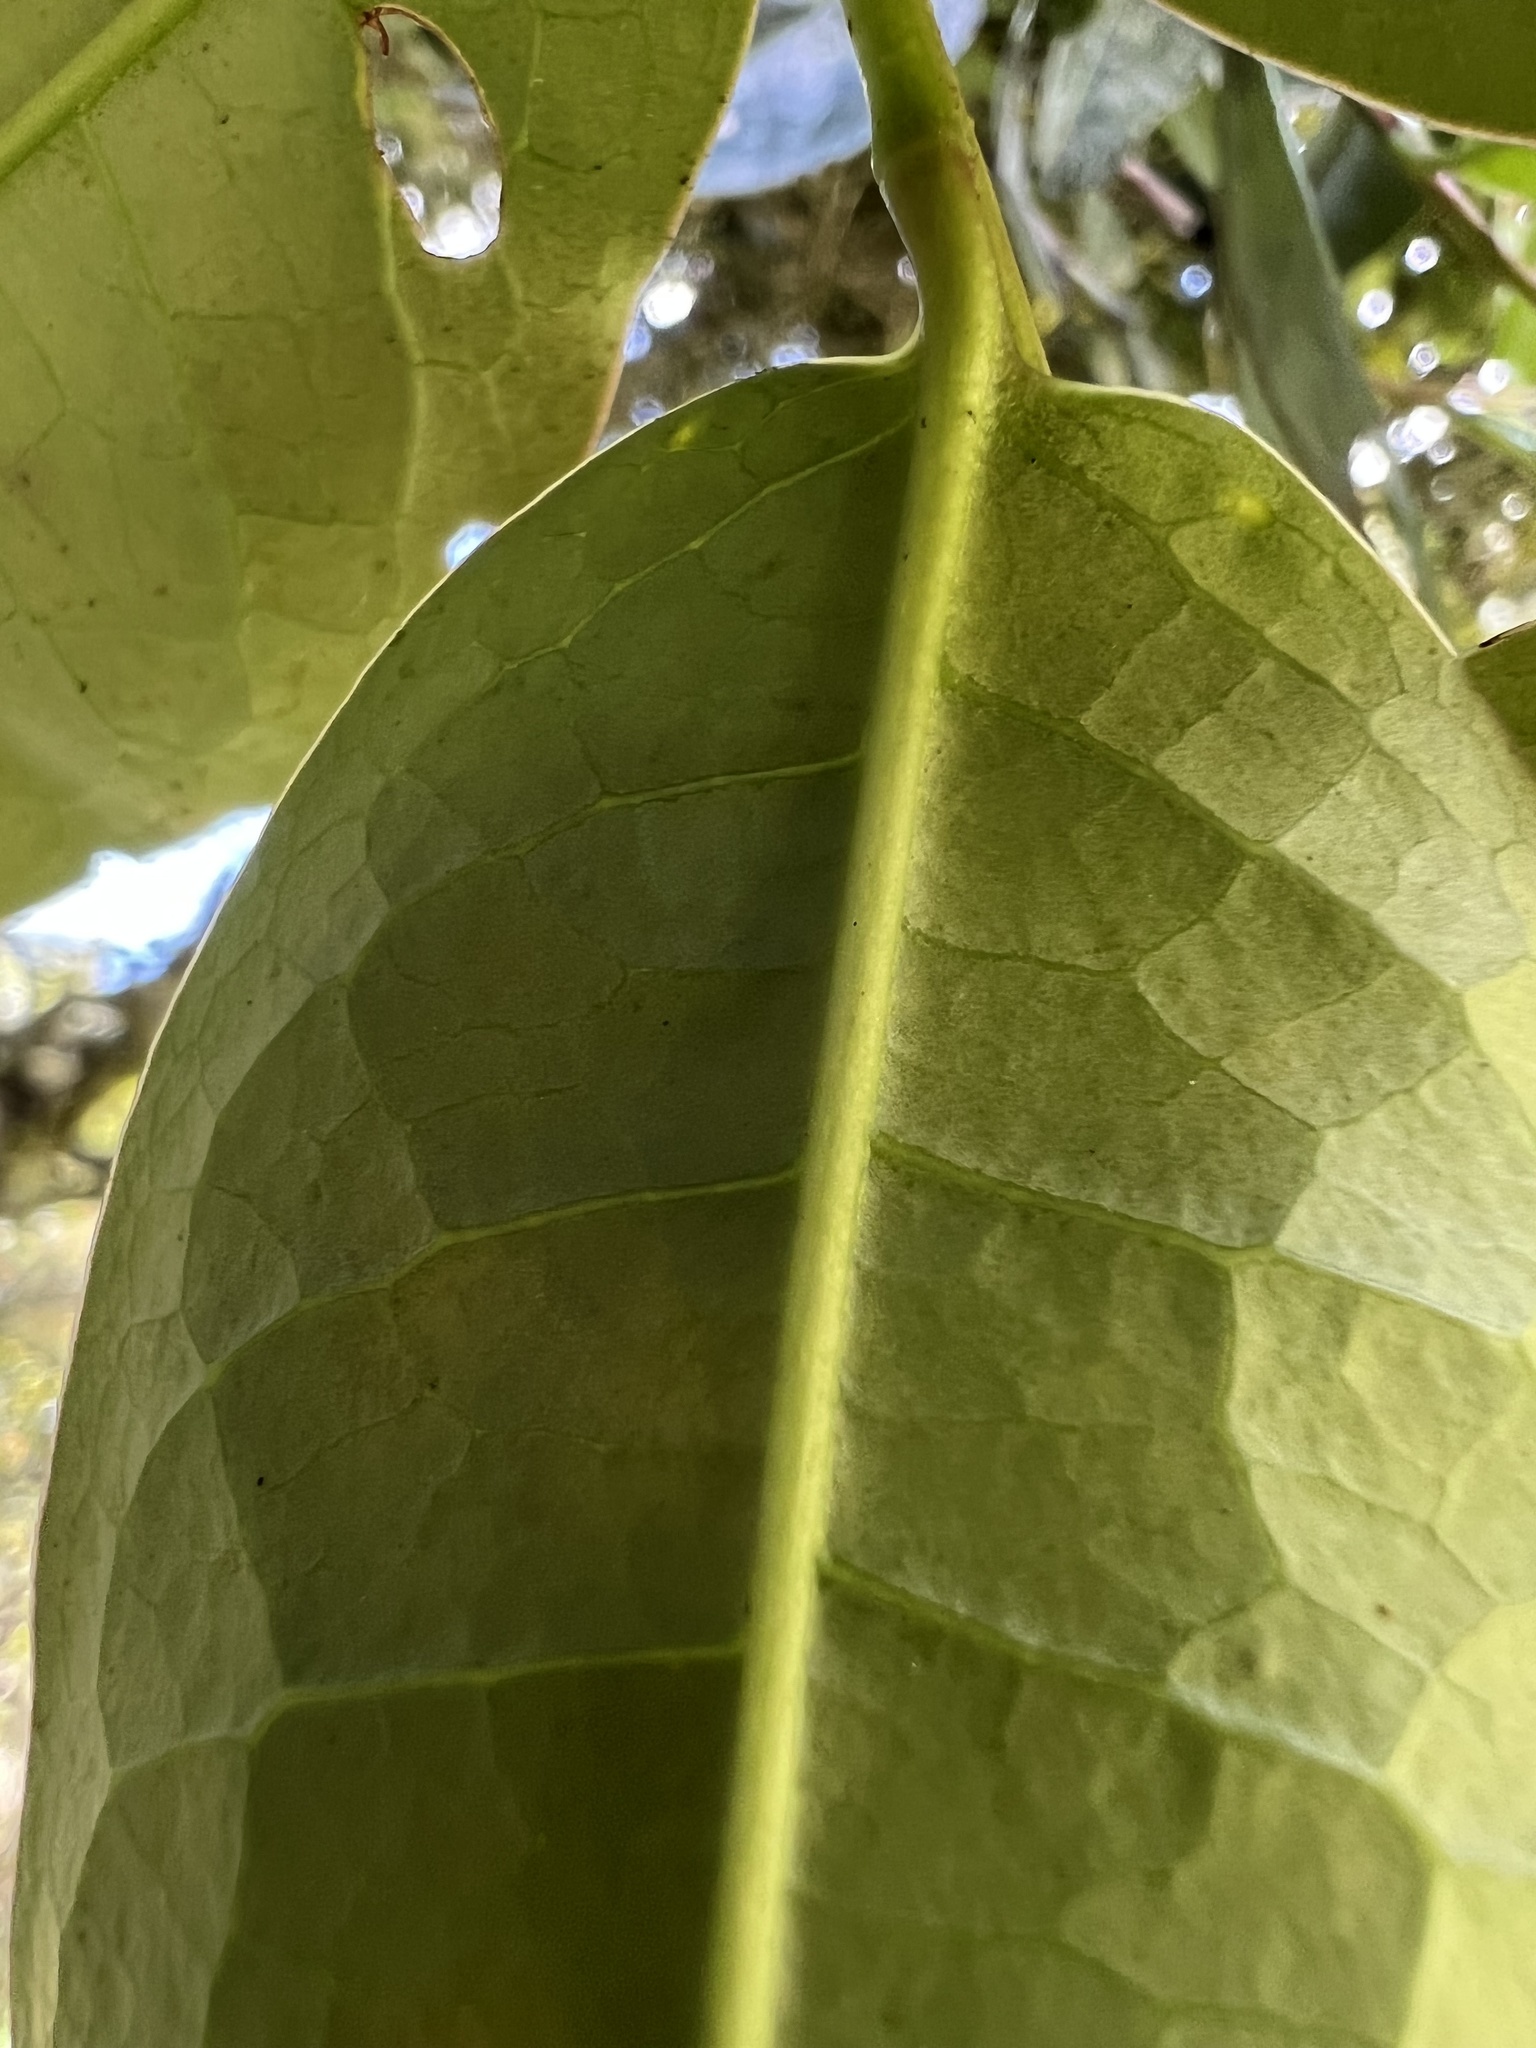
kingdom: Plantae
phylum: Tracheophyta
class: Magnoliopsida
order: Rosales
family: Rosaceae
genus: Prunus
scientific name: Prunus buxifolia
